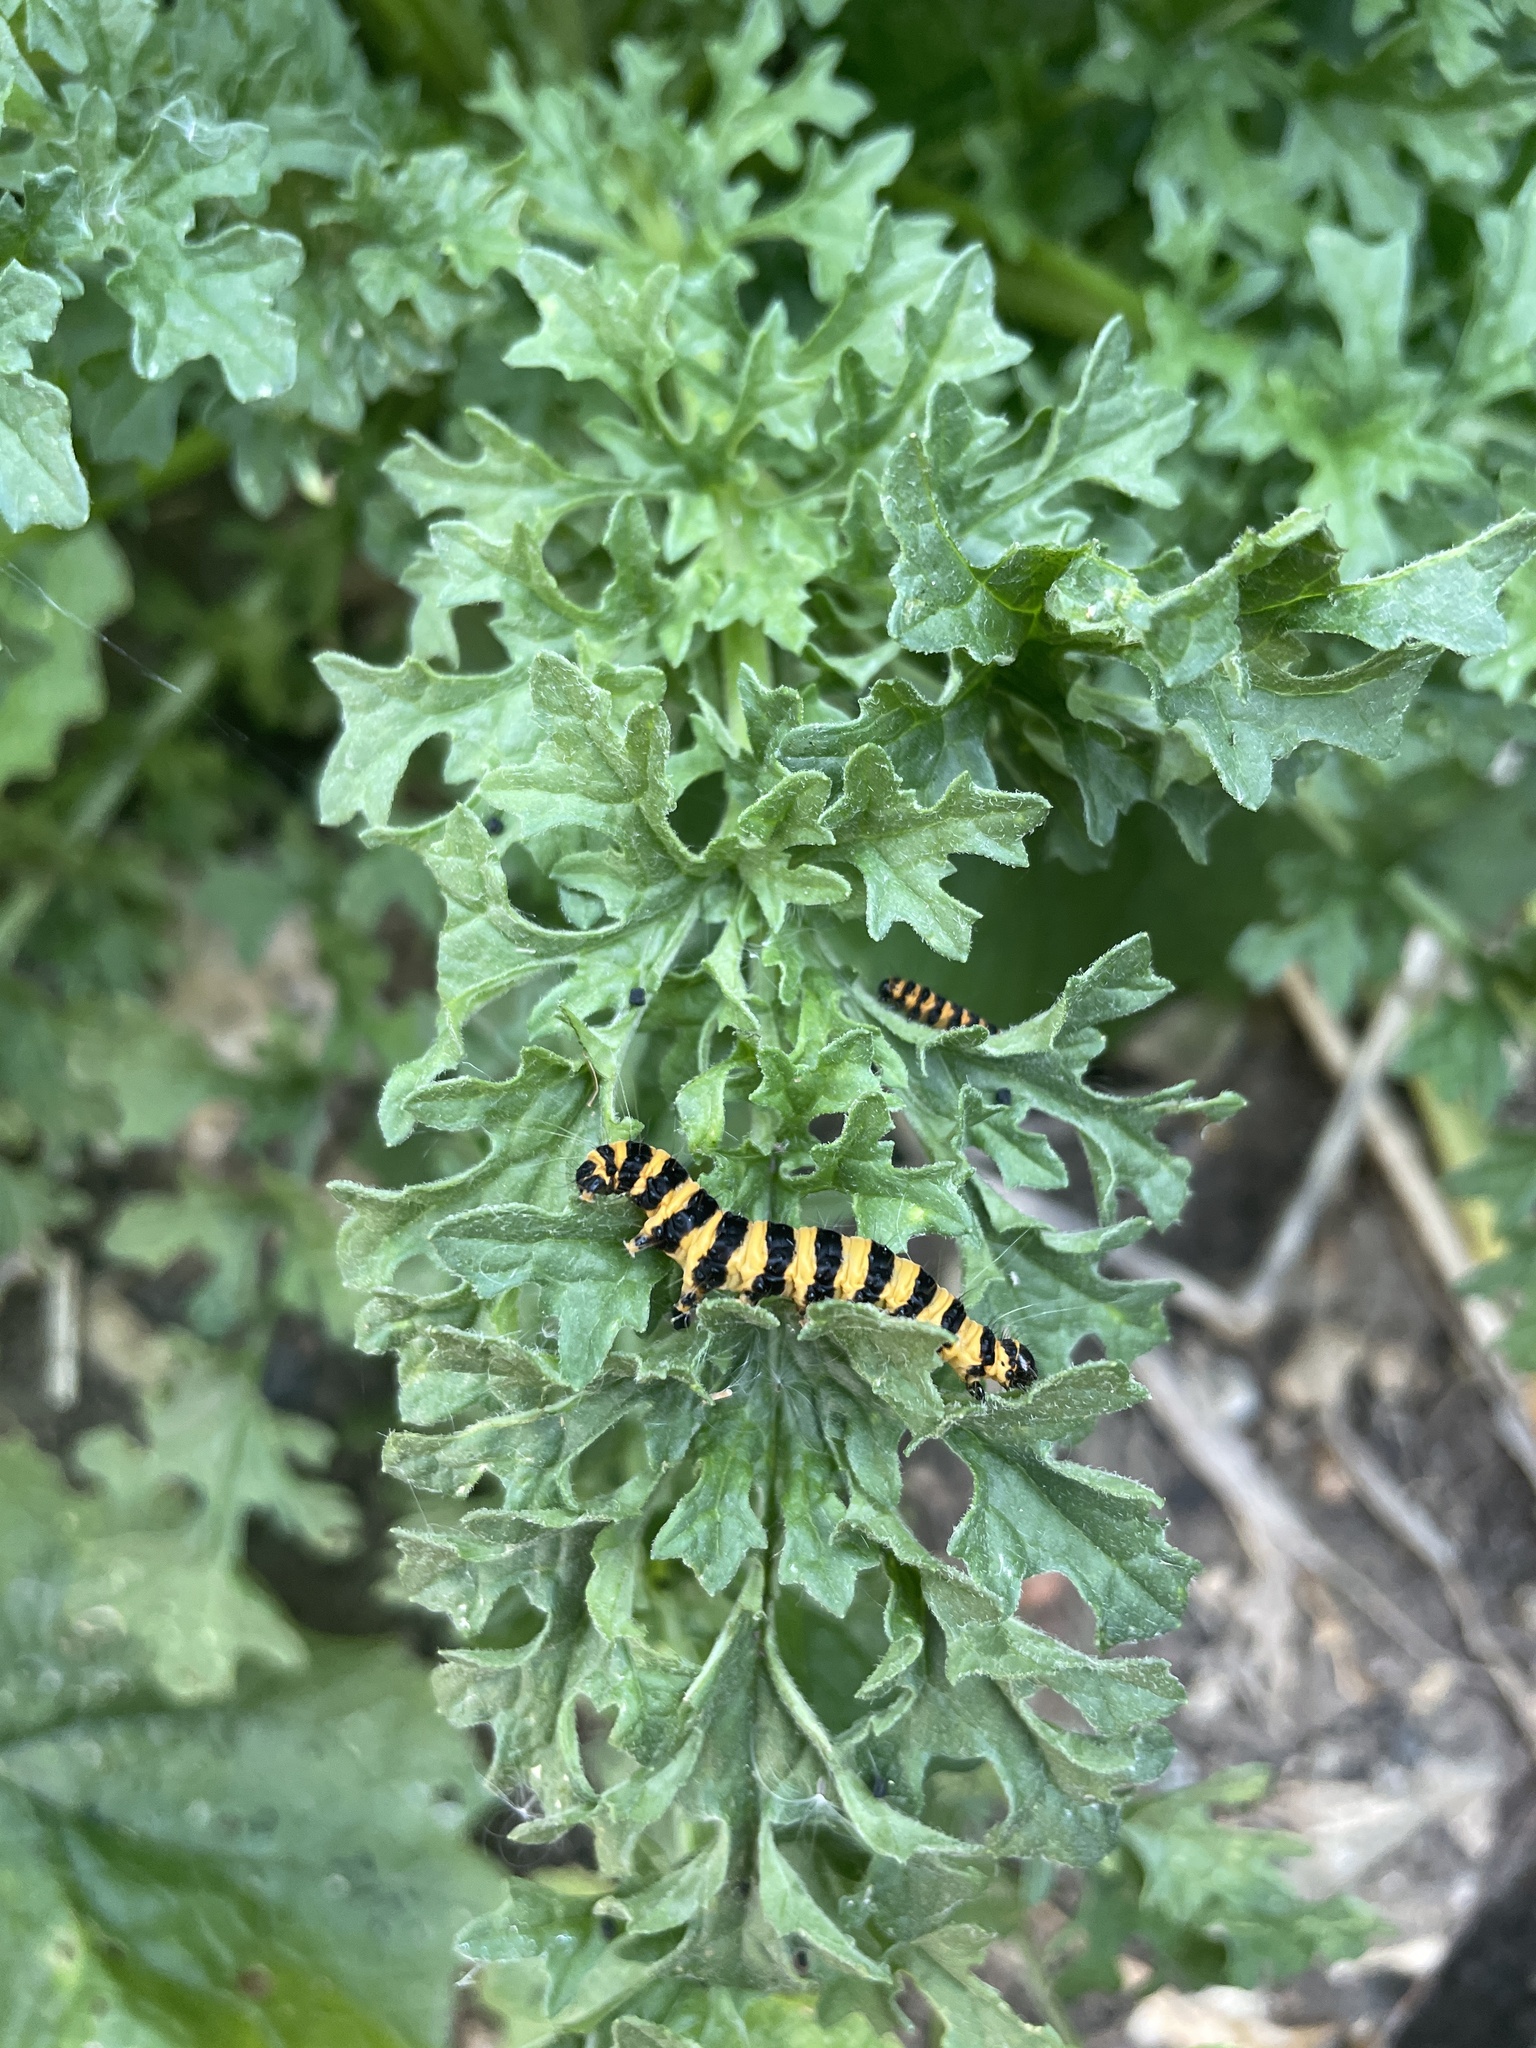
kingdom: Animalia
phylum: Arthropoda
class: Insecta
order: Lepidoptera
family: Erebidae
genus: Tyria
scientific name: Tyria jacobaeae
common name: Cinnabar
